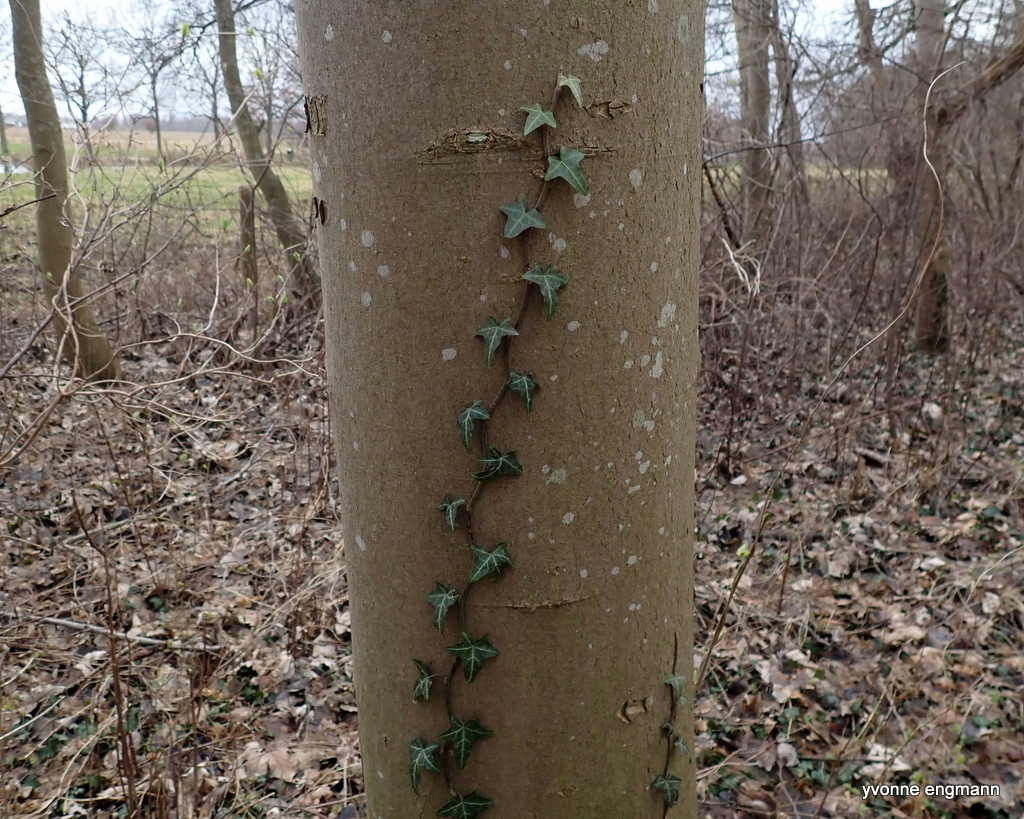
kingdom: Plantae
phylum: Tracheophyta
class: Magnoliopsida
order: Apiales
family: Araliaceae
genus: Hedera
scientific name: Hedera helix
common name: Ivy
